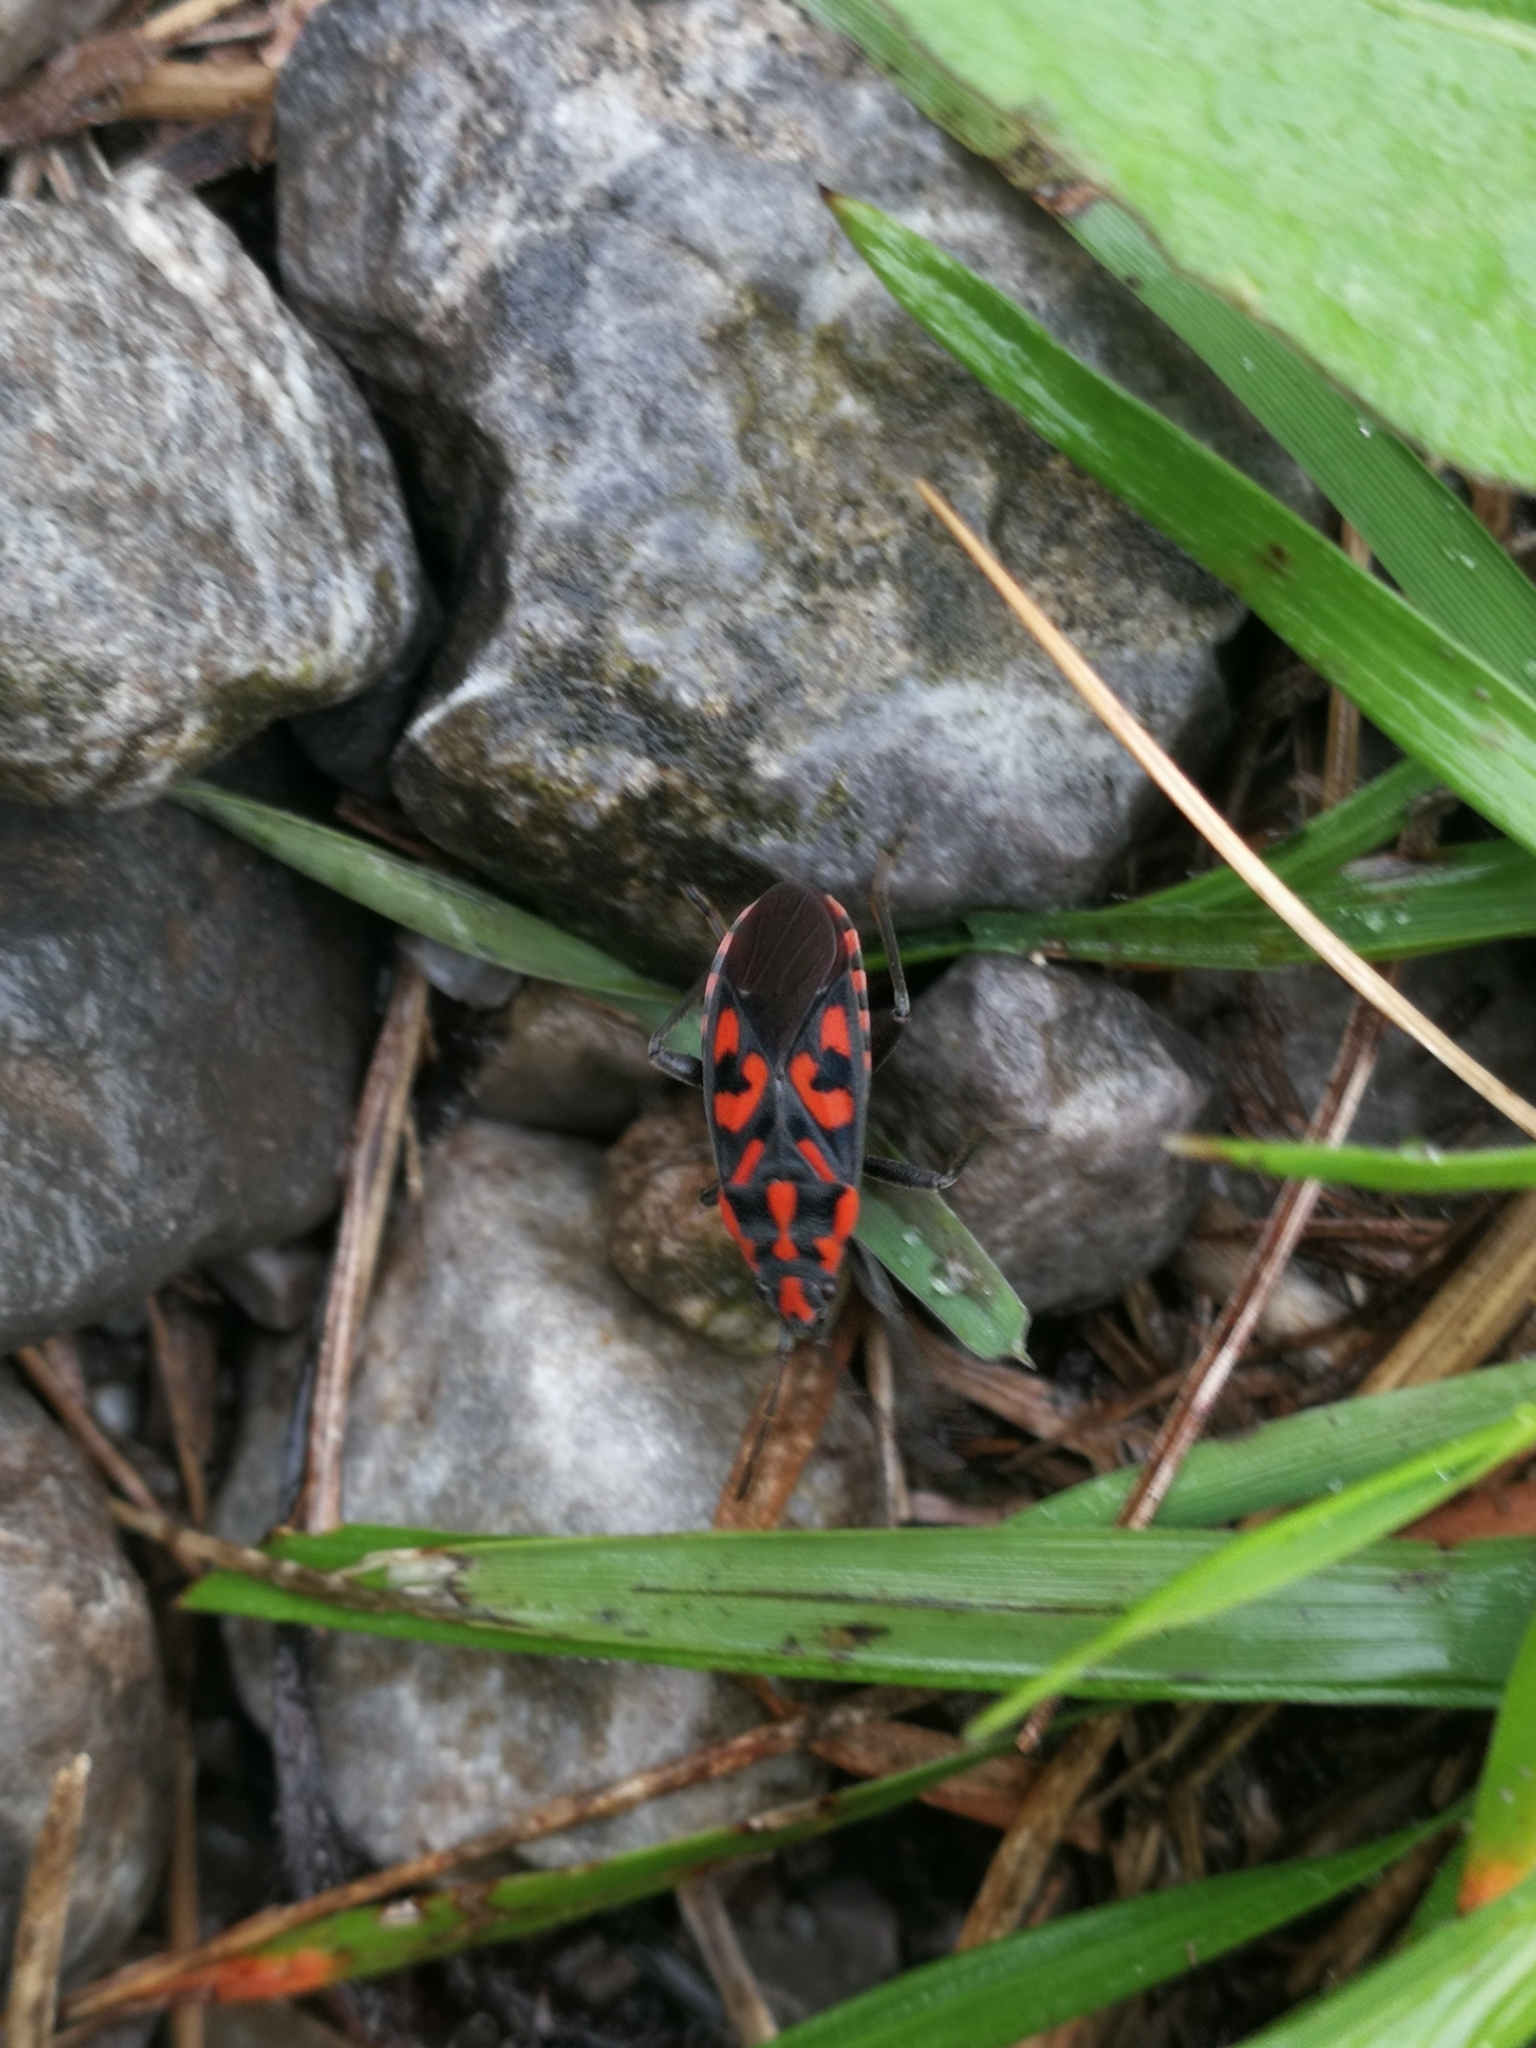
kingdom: Animalia
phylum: Arthropoda
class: Insecta
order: Hemiptera
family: Lygaeidae
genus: Spilostethus
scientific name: Spilostethus saxatilis
